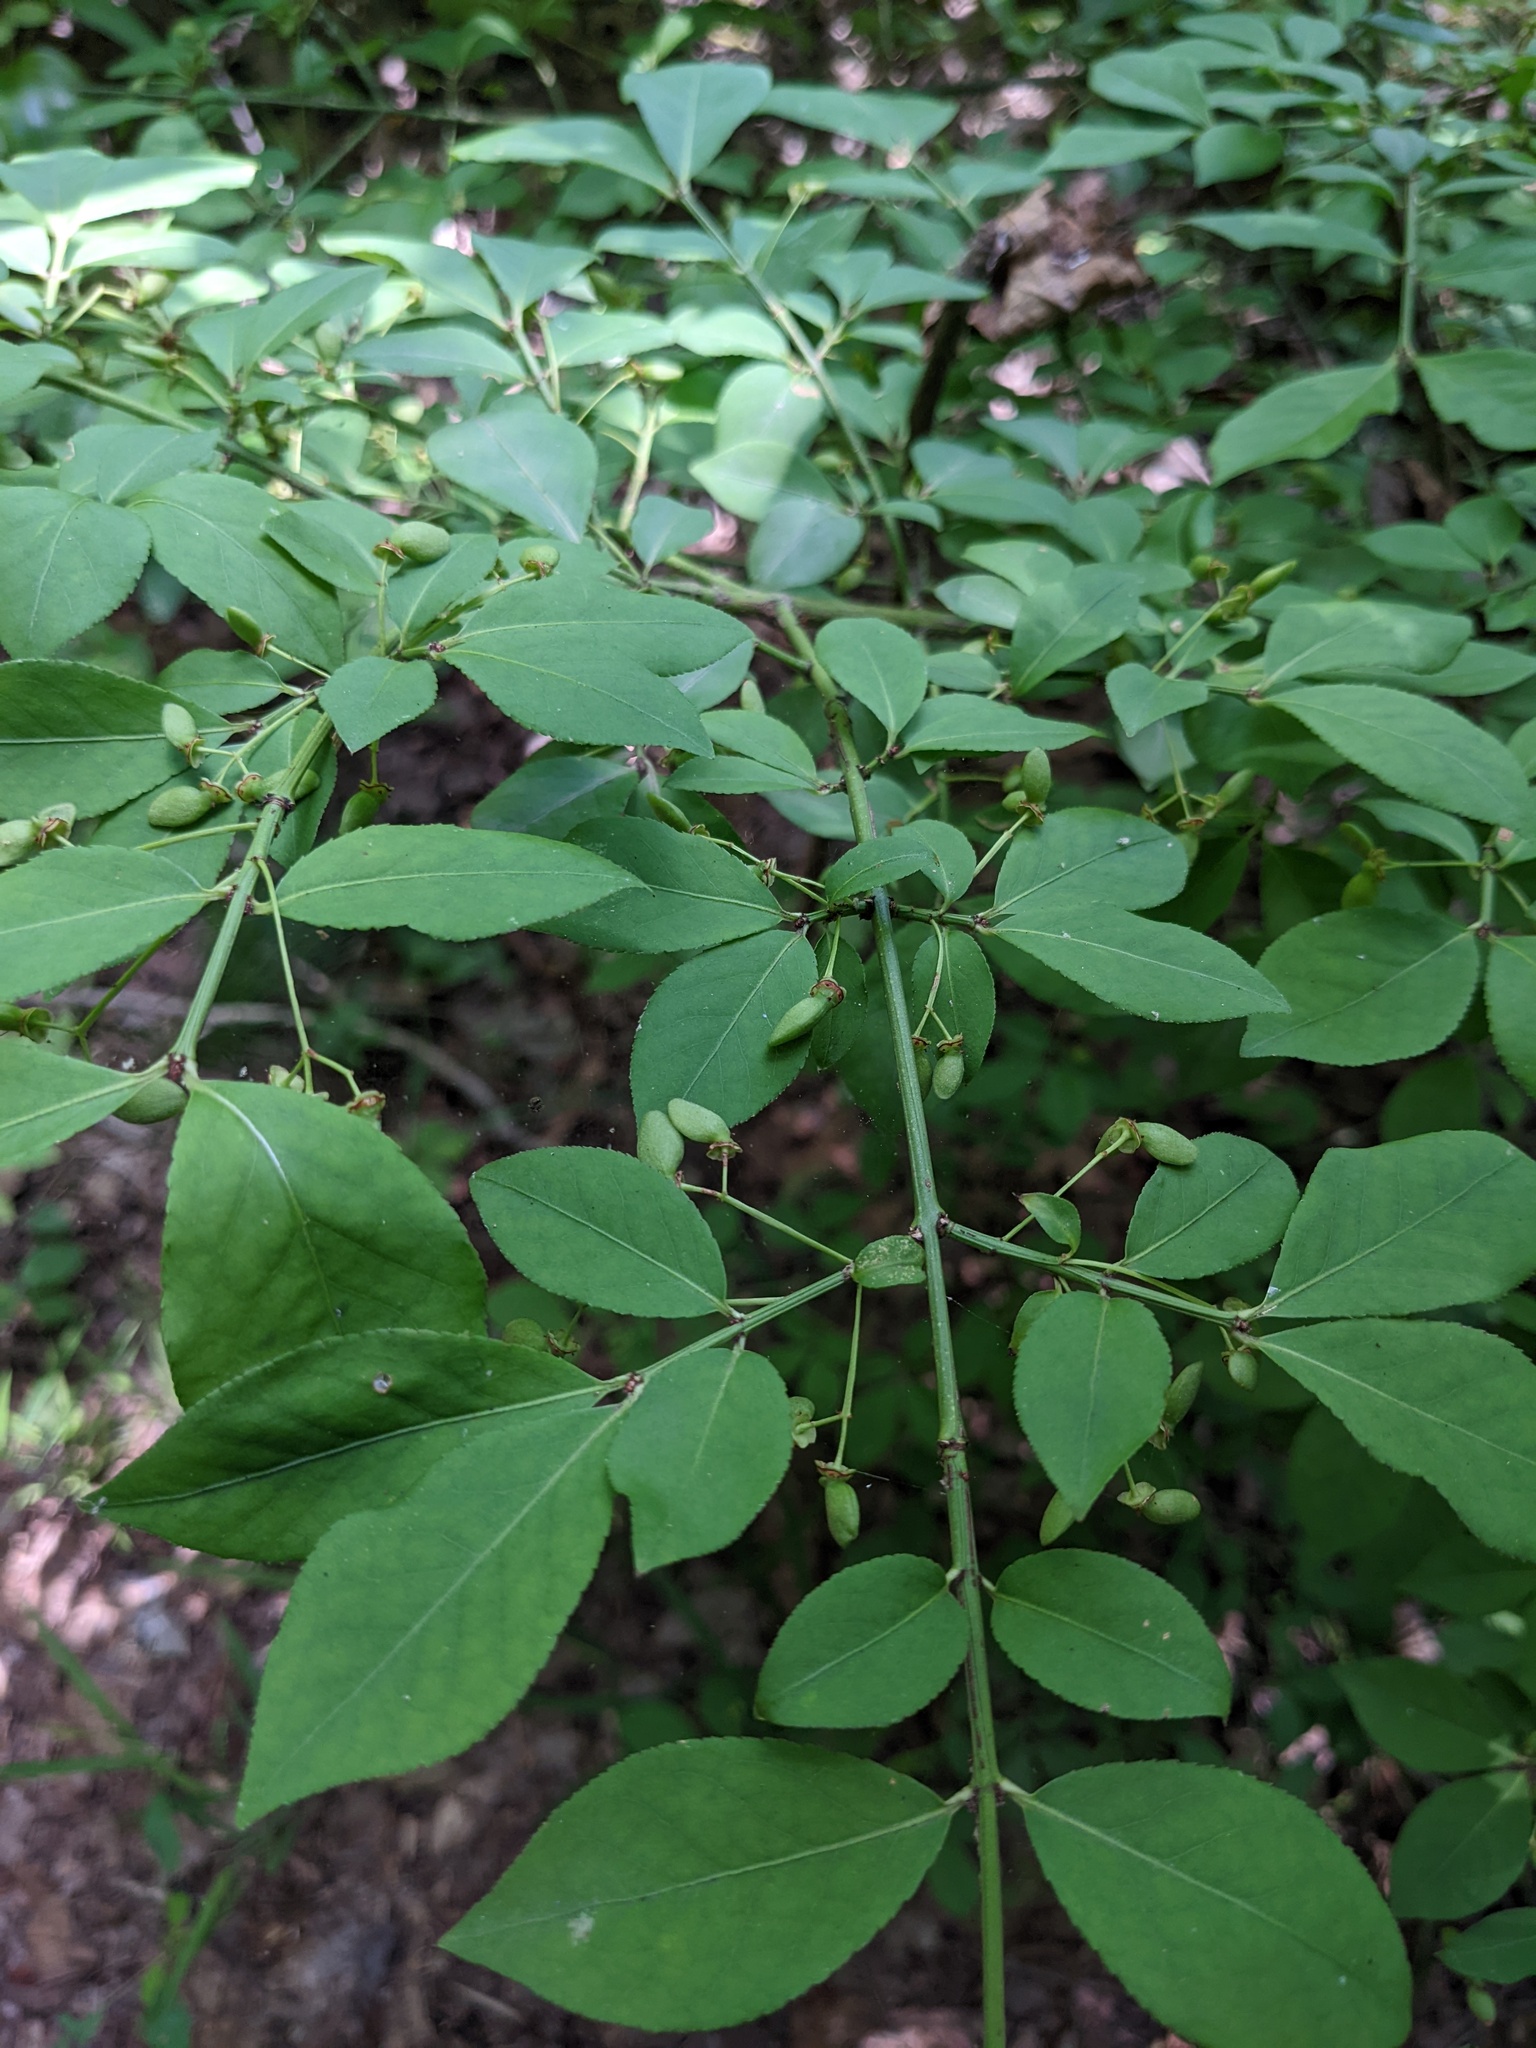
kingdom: Plantae
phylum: Tracheophyta
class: Magnoliopsida
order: Celastrales
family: Celastraceae
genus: Euonymus
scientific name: Euonymus alatus
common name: Winged euonymus
